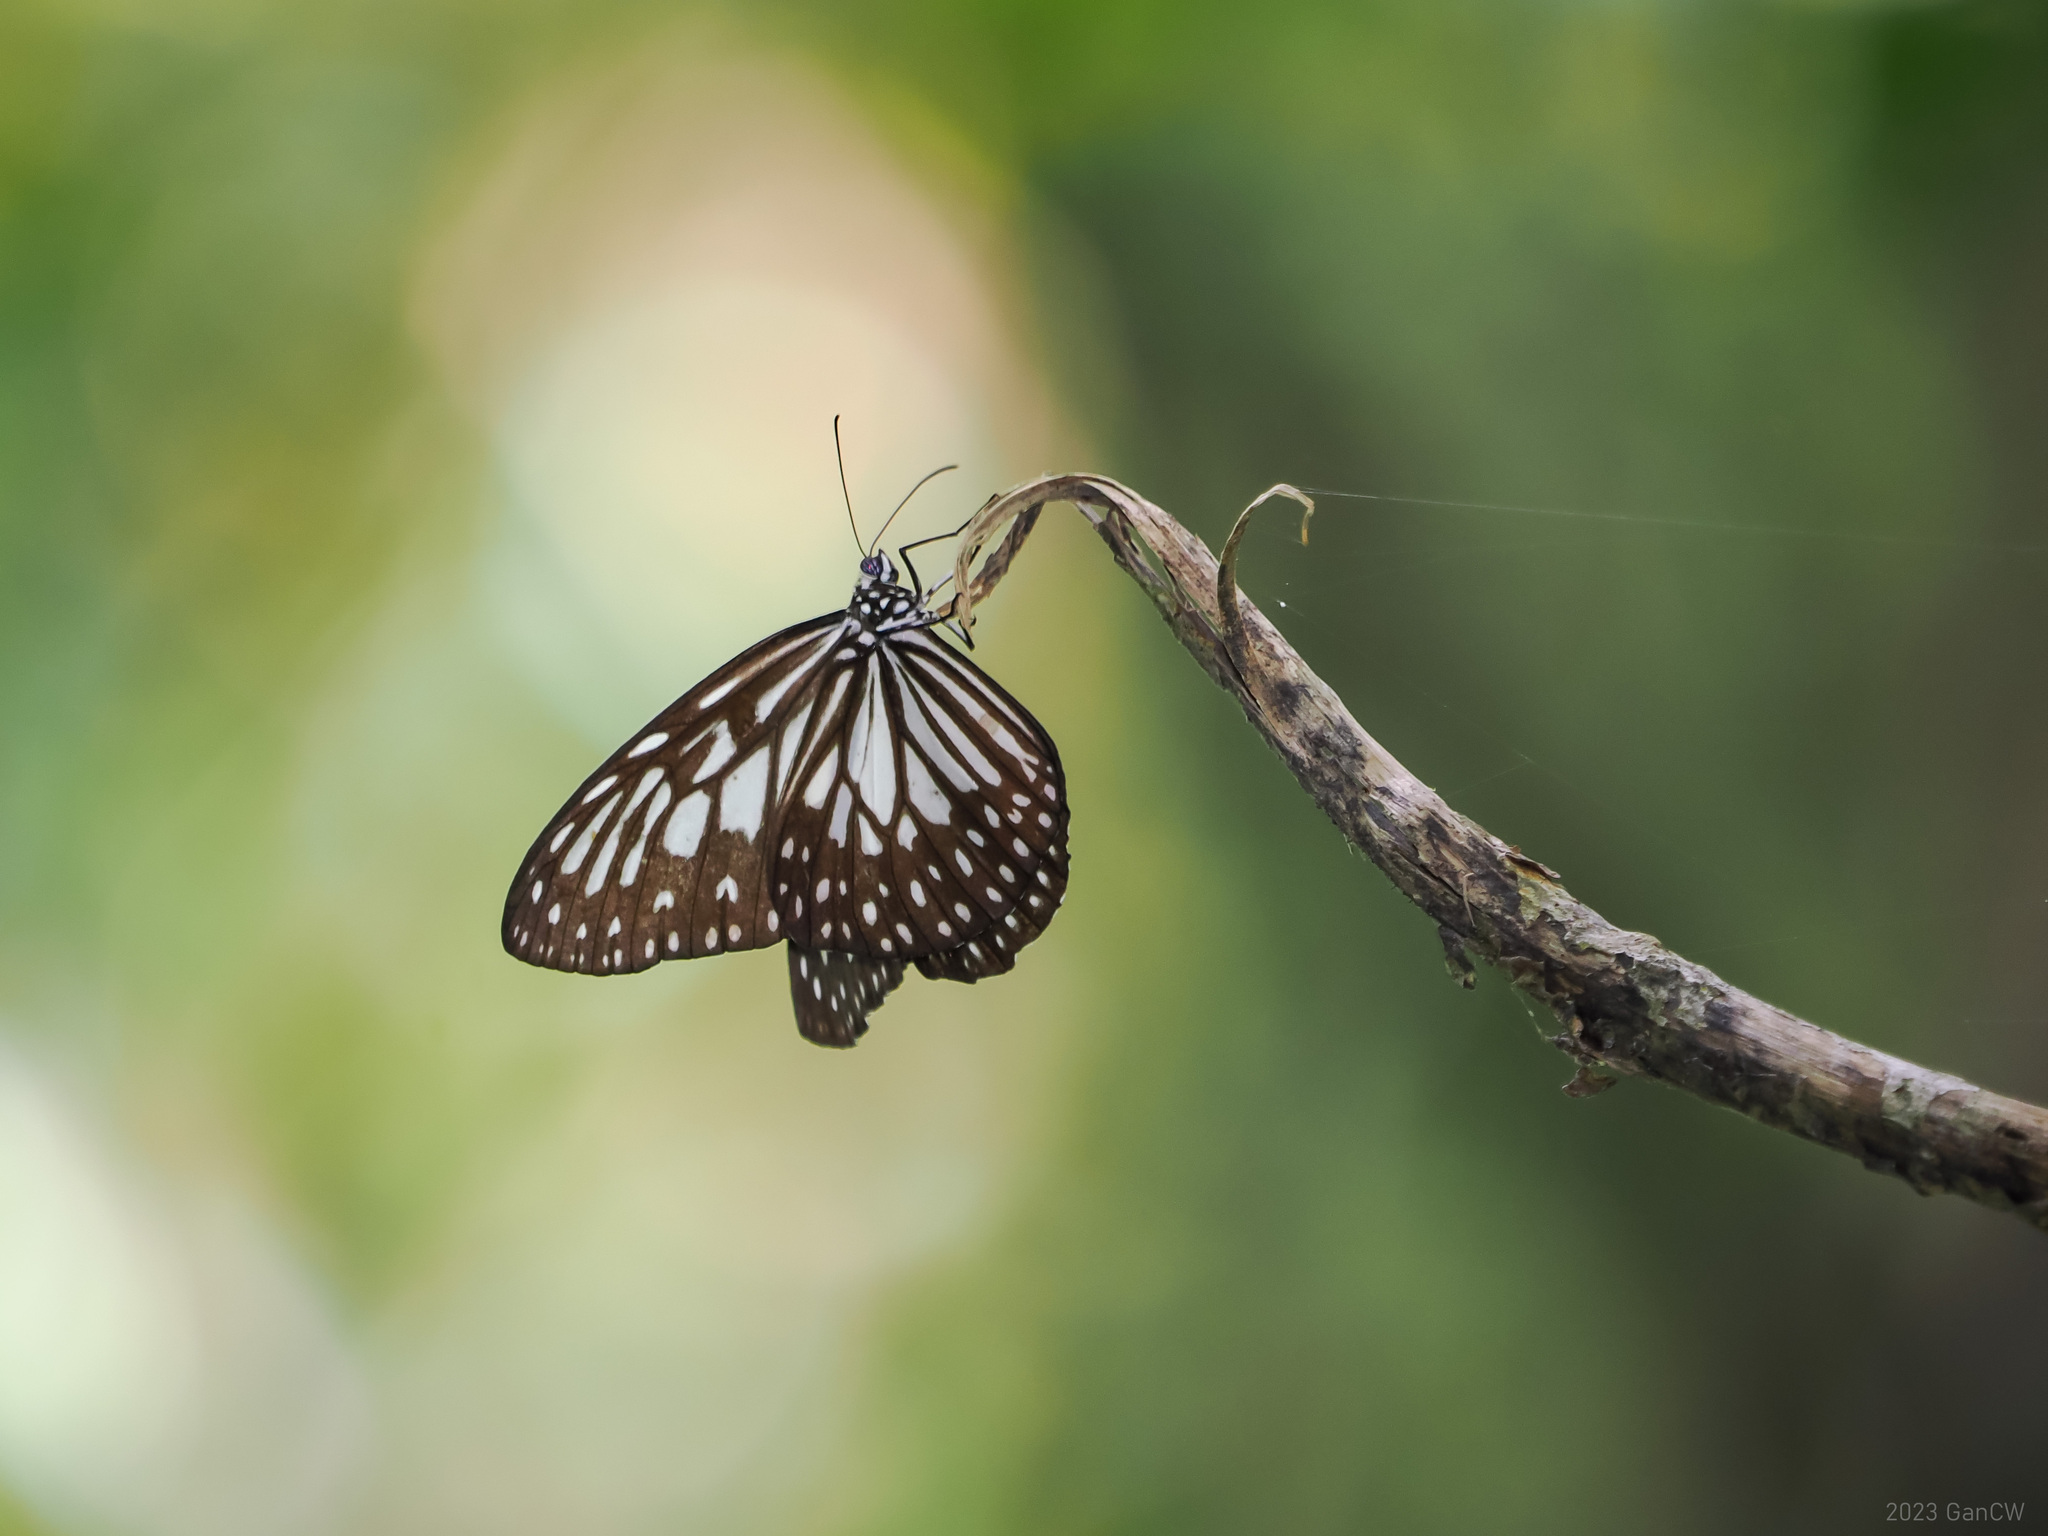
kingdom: Animalia
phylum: Arthropoda
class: Insecta
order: Lepidoptera
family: Nymphalidae
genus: Ideopsis
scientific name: Ideopsis juventa
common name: Grey glassy tiger
